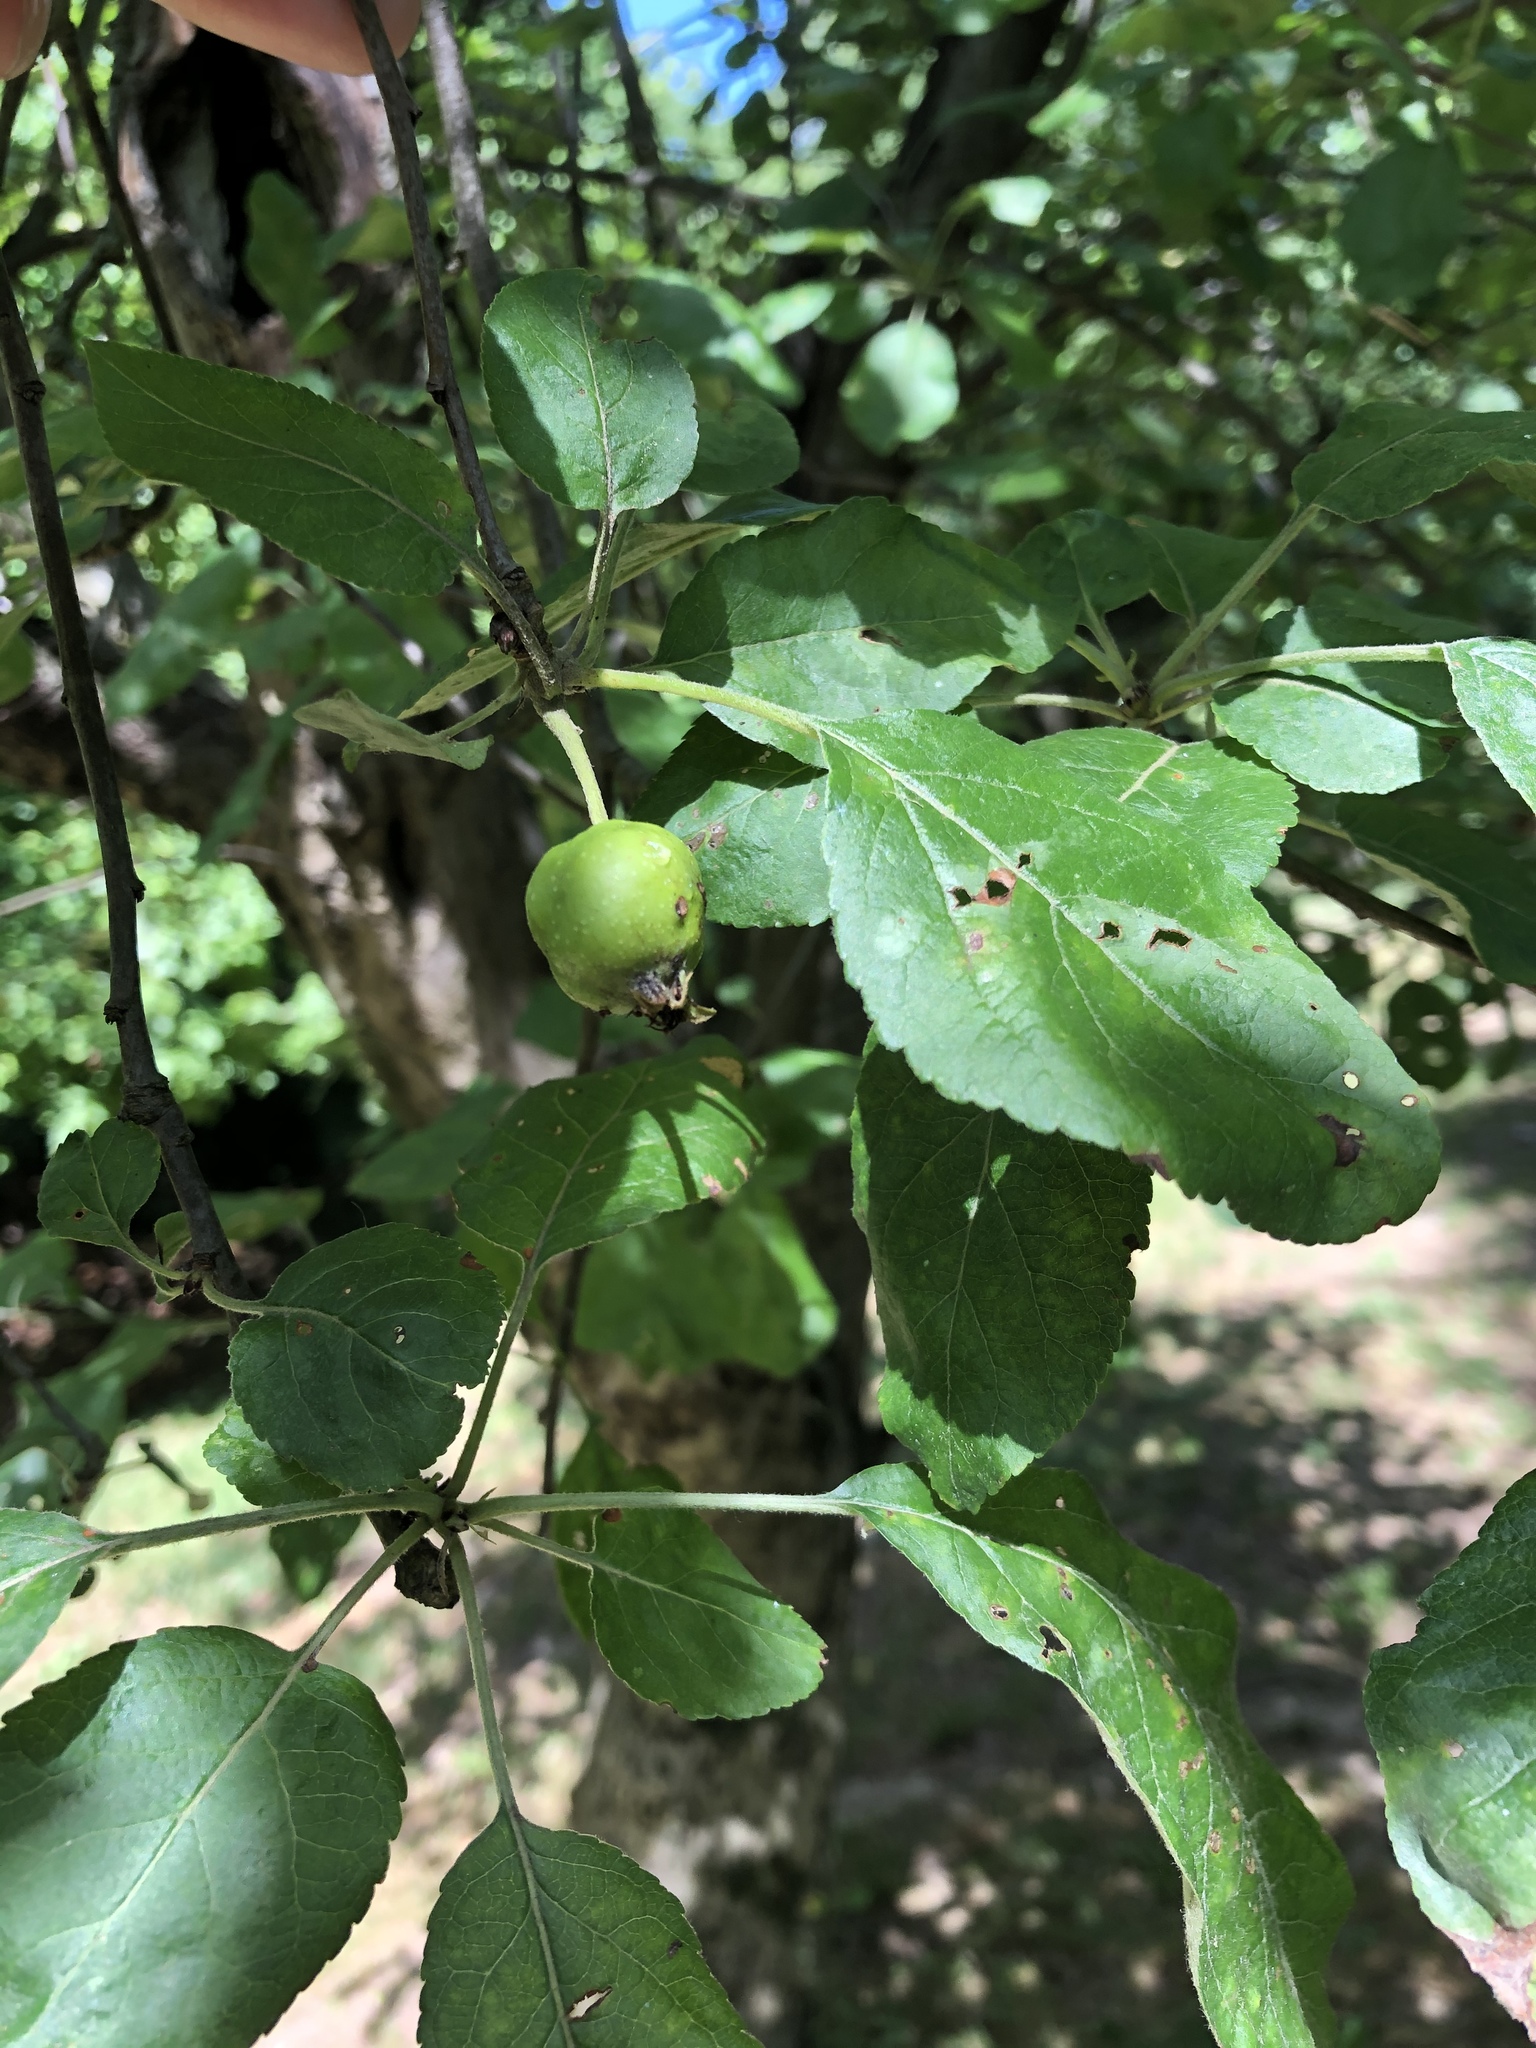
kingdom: Plantae
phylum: Tracheophyta
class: Magnoliopsida
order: Rosales
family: Rosaceae
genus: Malus
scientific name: Malus domestica
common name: Apple
